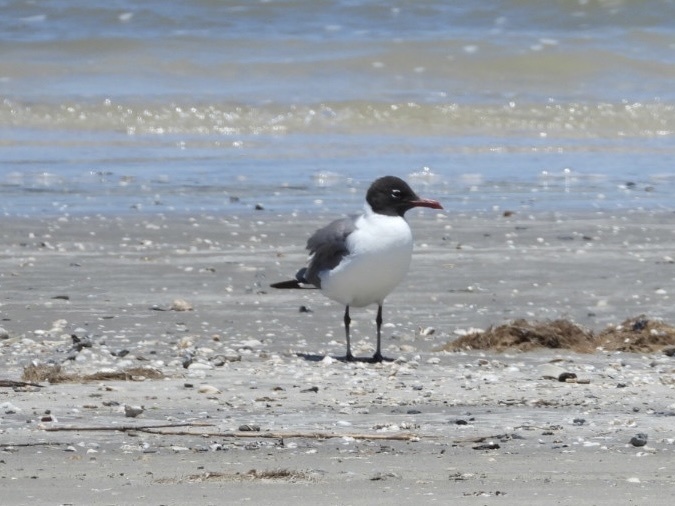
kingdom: Animalia
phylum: Chordata
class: Aves
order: Charadriiformes
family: Laridae
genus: Leucophaeus
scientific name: Leucophaeus atricilla
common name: Laughing gull
